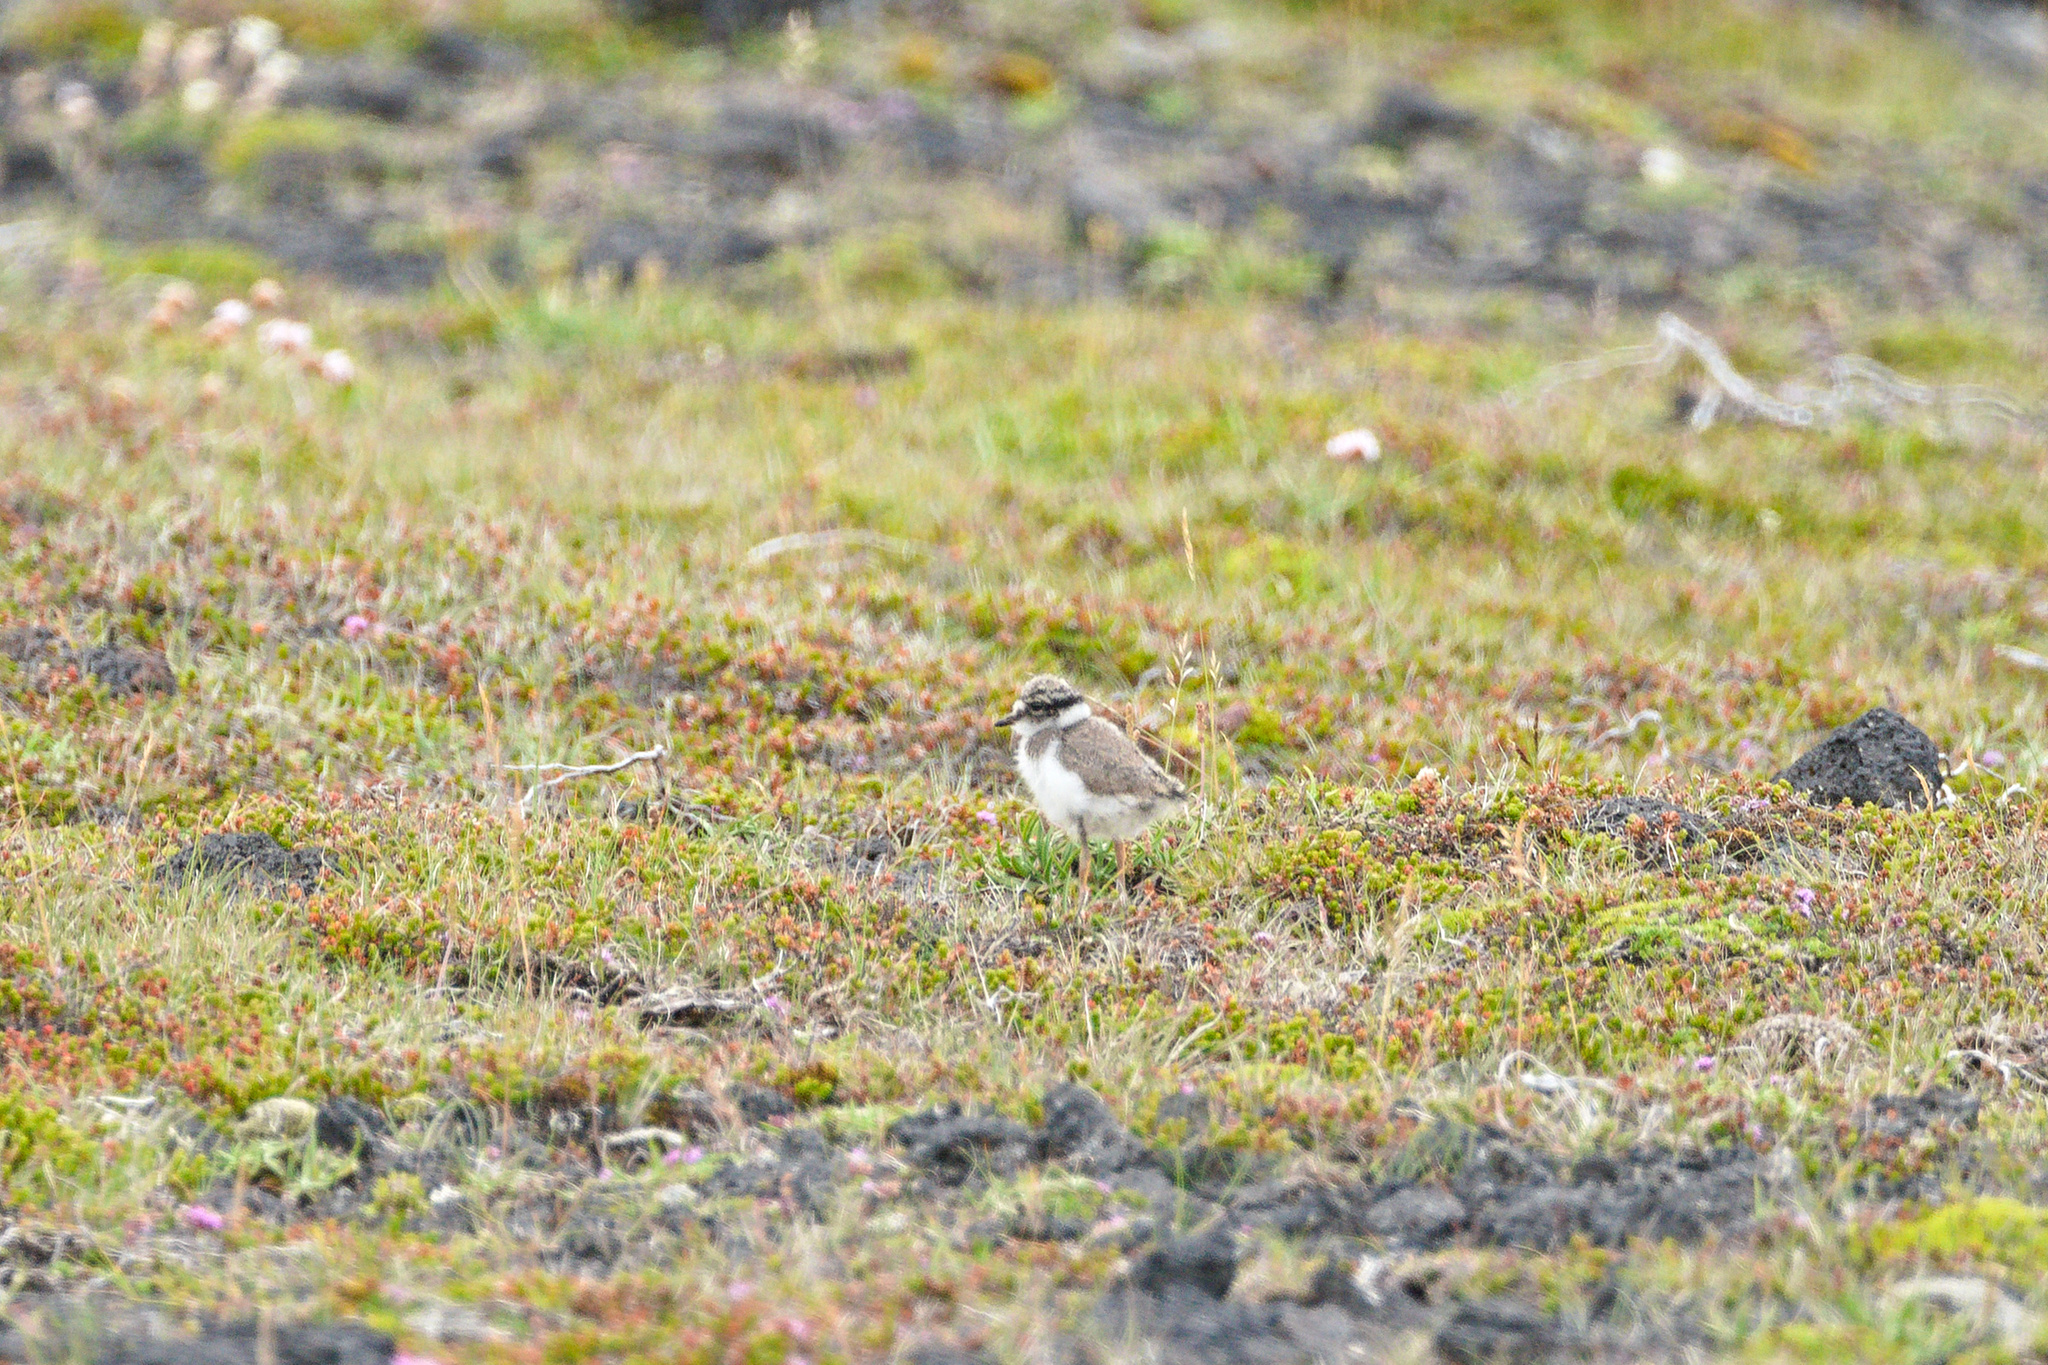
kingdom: Animalia
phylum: Chordata
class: Aves
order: Charadriiformes
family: Charadriidae
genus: Charadrius
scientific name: Charadrius hiaticula
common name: Common ringed plover
